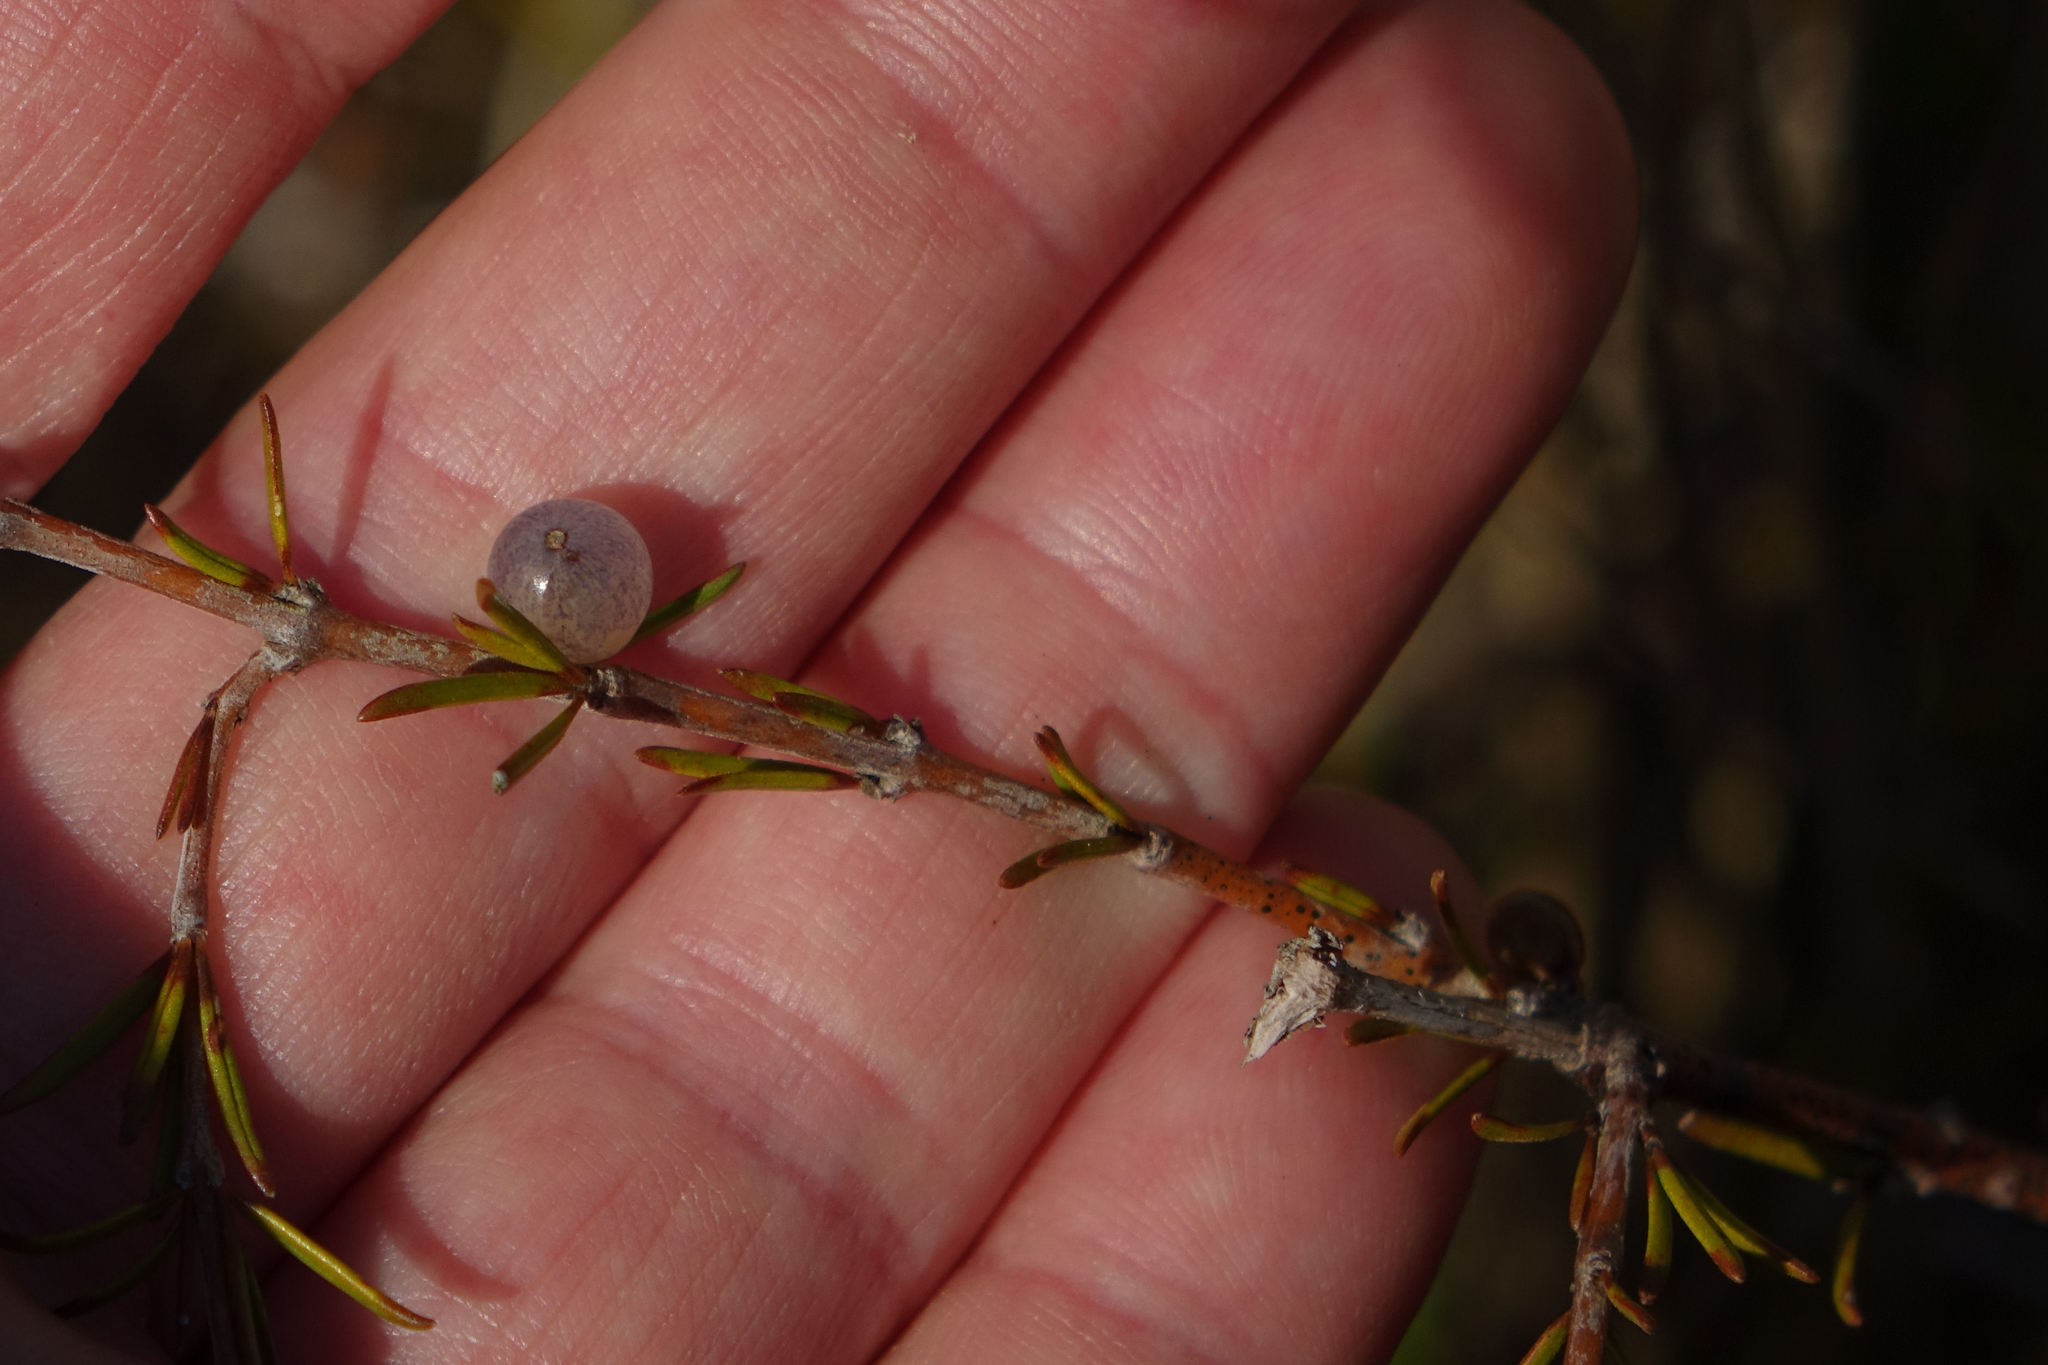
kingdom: Plantae
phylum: Tracheophyta
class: Magnoliopsida
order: Gentianales
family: Rubiaceae
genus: Coprosma
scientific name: Coprosma acerosa
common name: Sand coprosma
